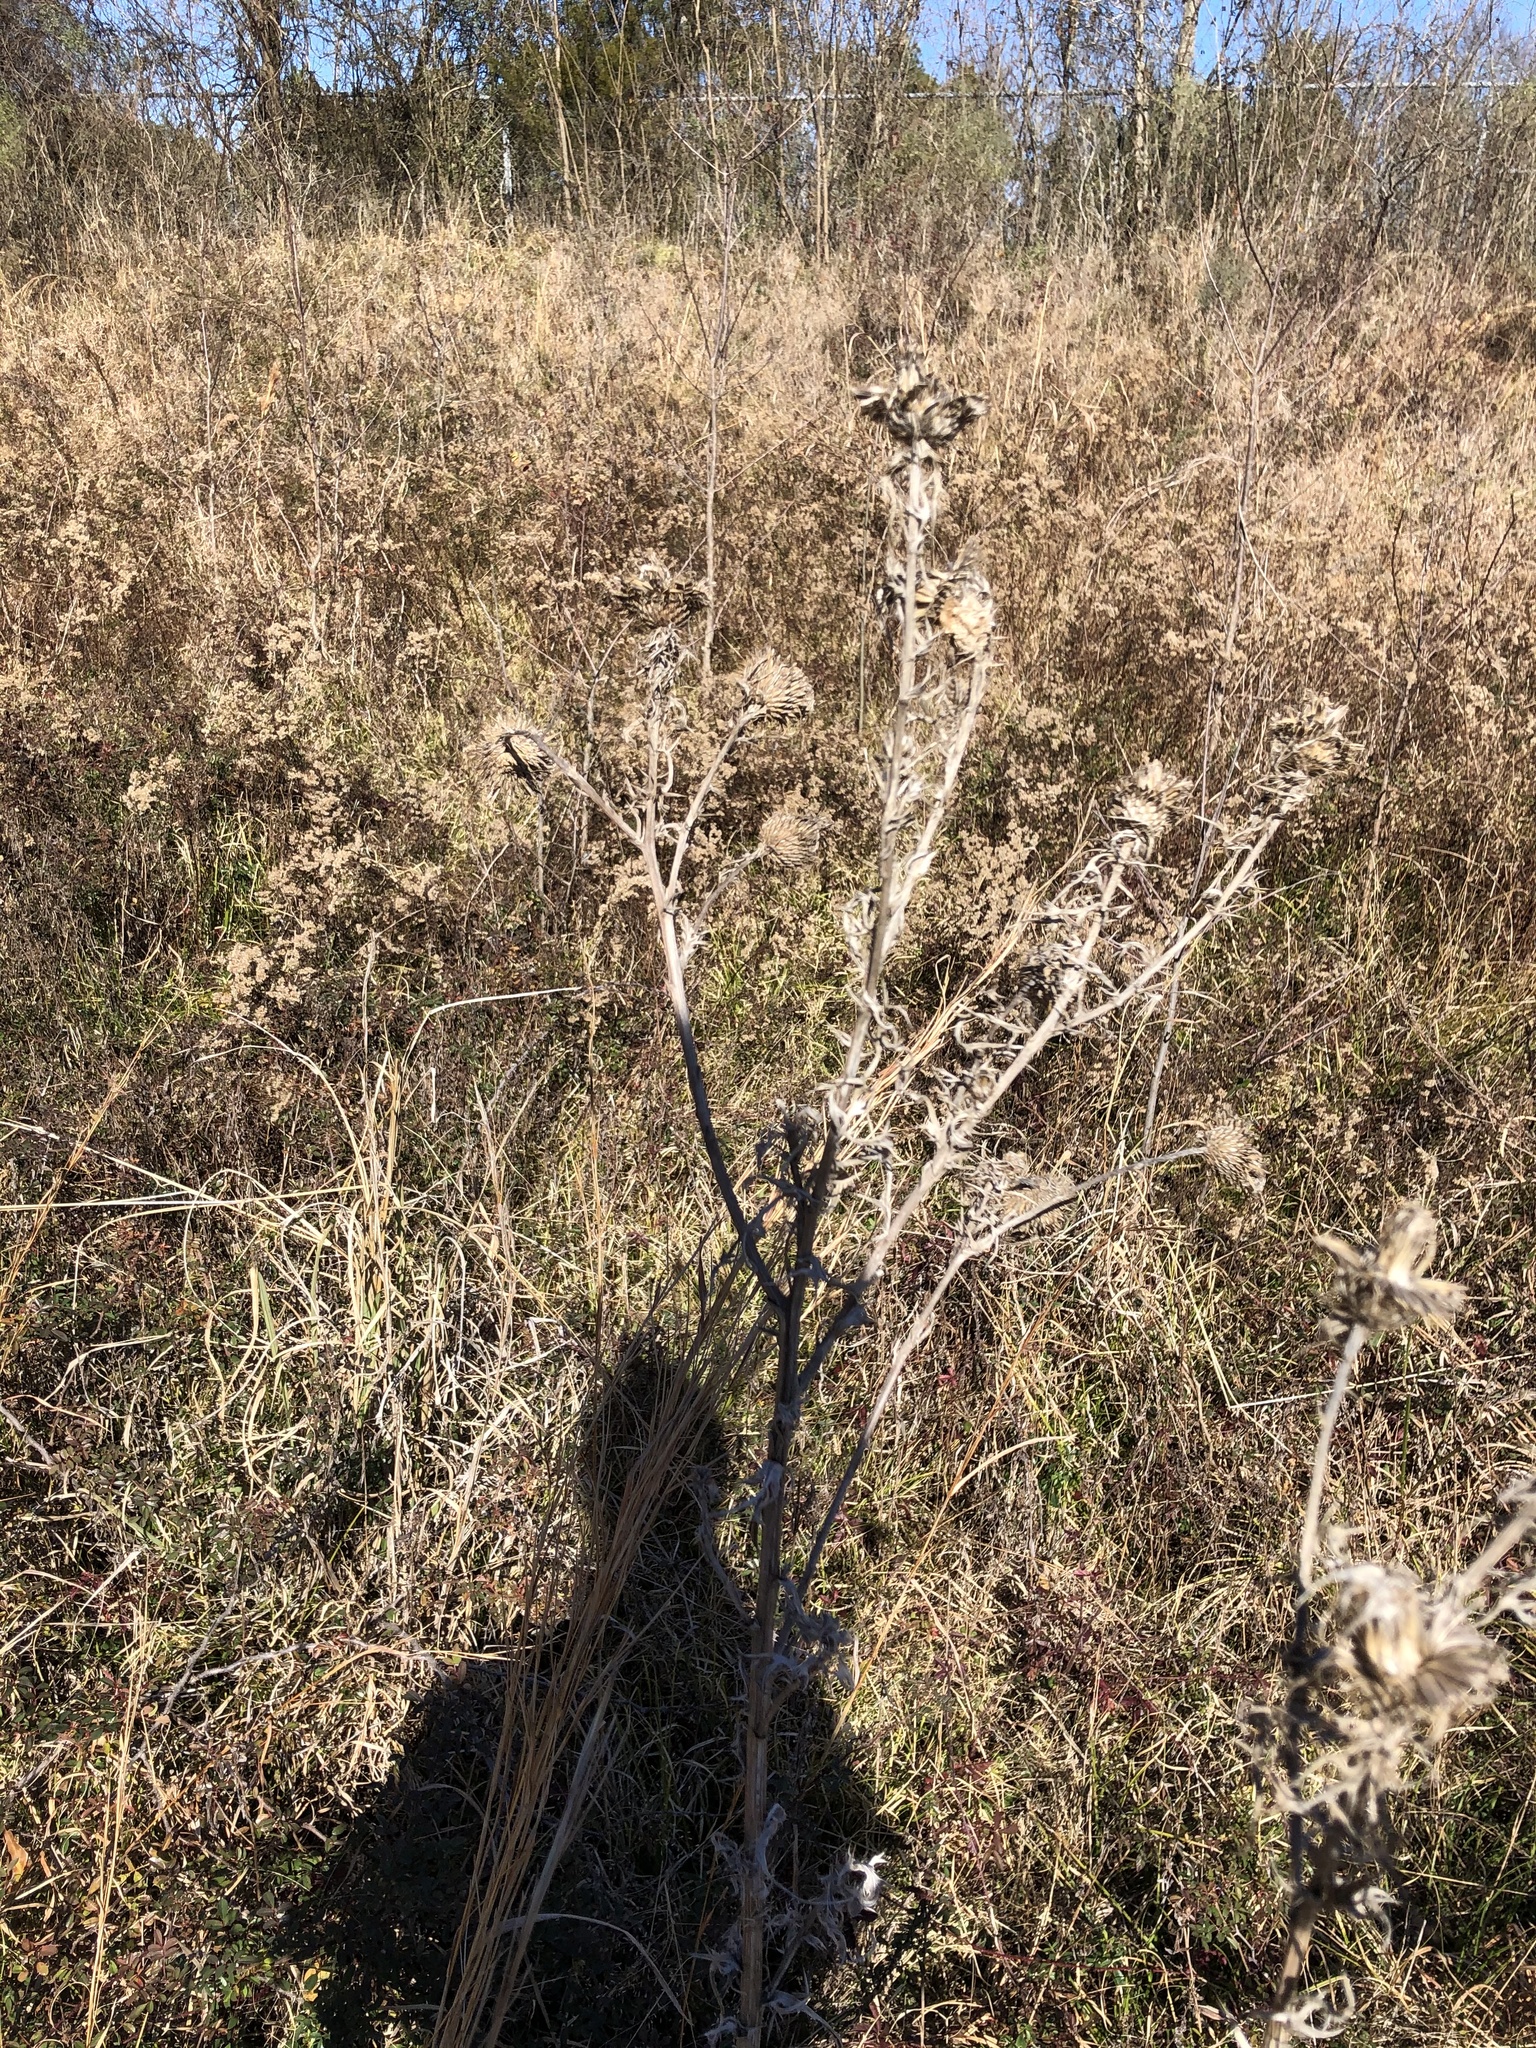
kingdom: Plantae
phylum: Tracheophyta
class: Magnoliopsida
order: Asterales
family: Asteraceae
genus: Cirsium
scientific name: Cirsium discolor
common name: Field thistle
